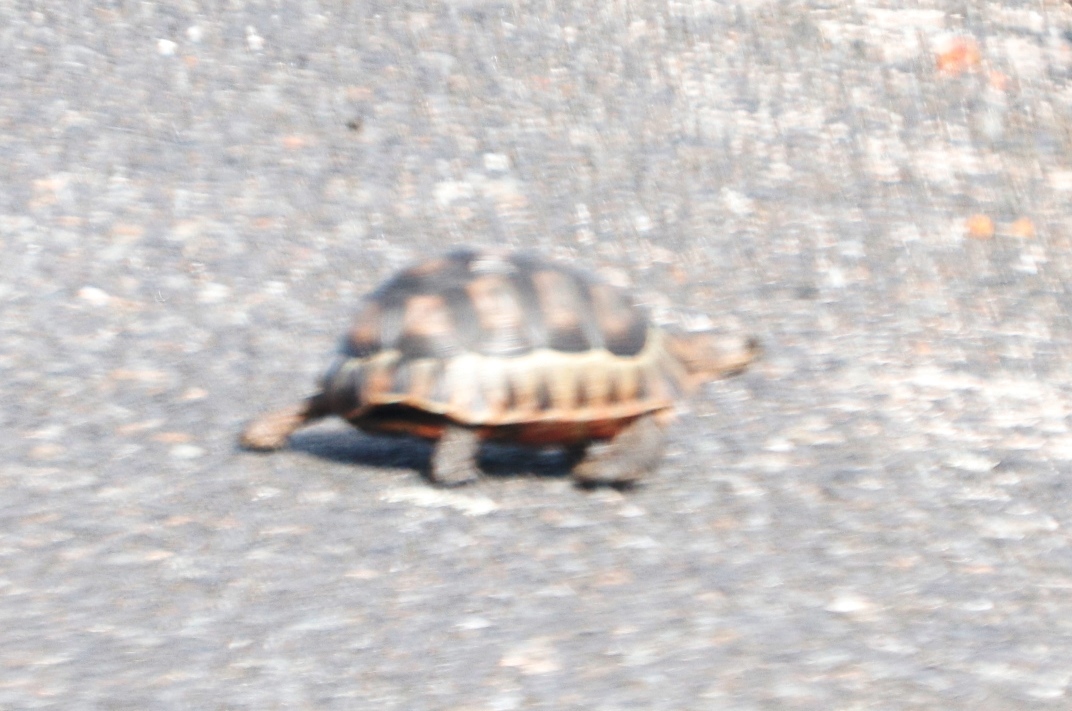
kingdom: Animalia
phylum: Chordata
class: Testudines
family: Testudinidae
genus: Chersina
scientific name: Chersina angulata
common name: South african bowsprit tortoise
